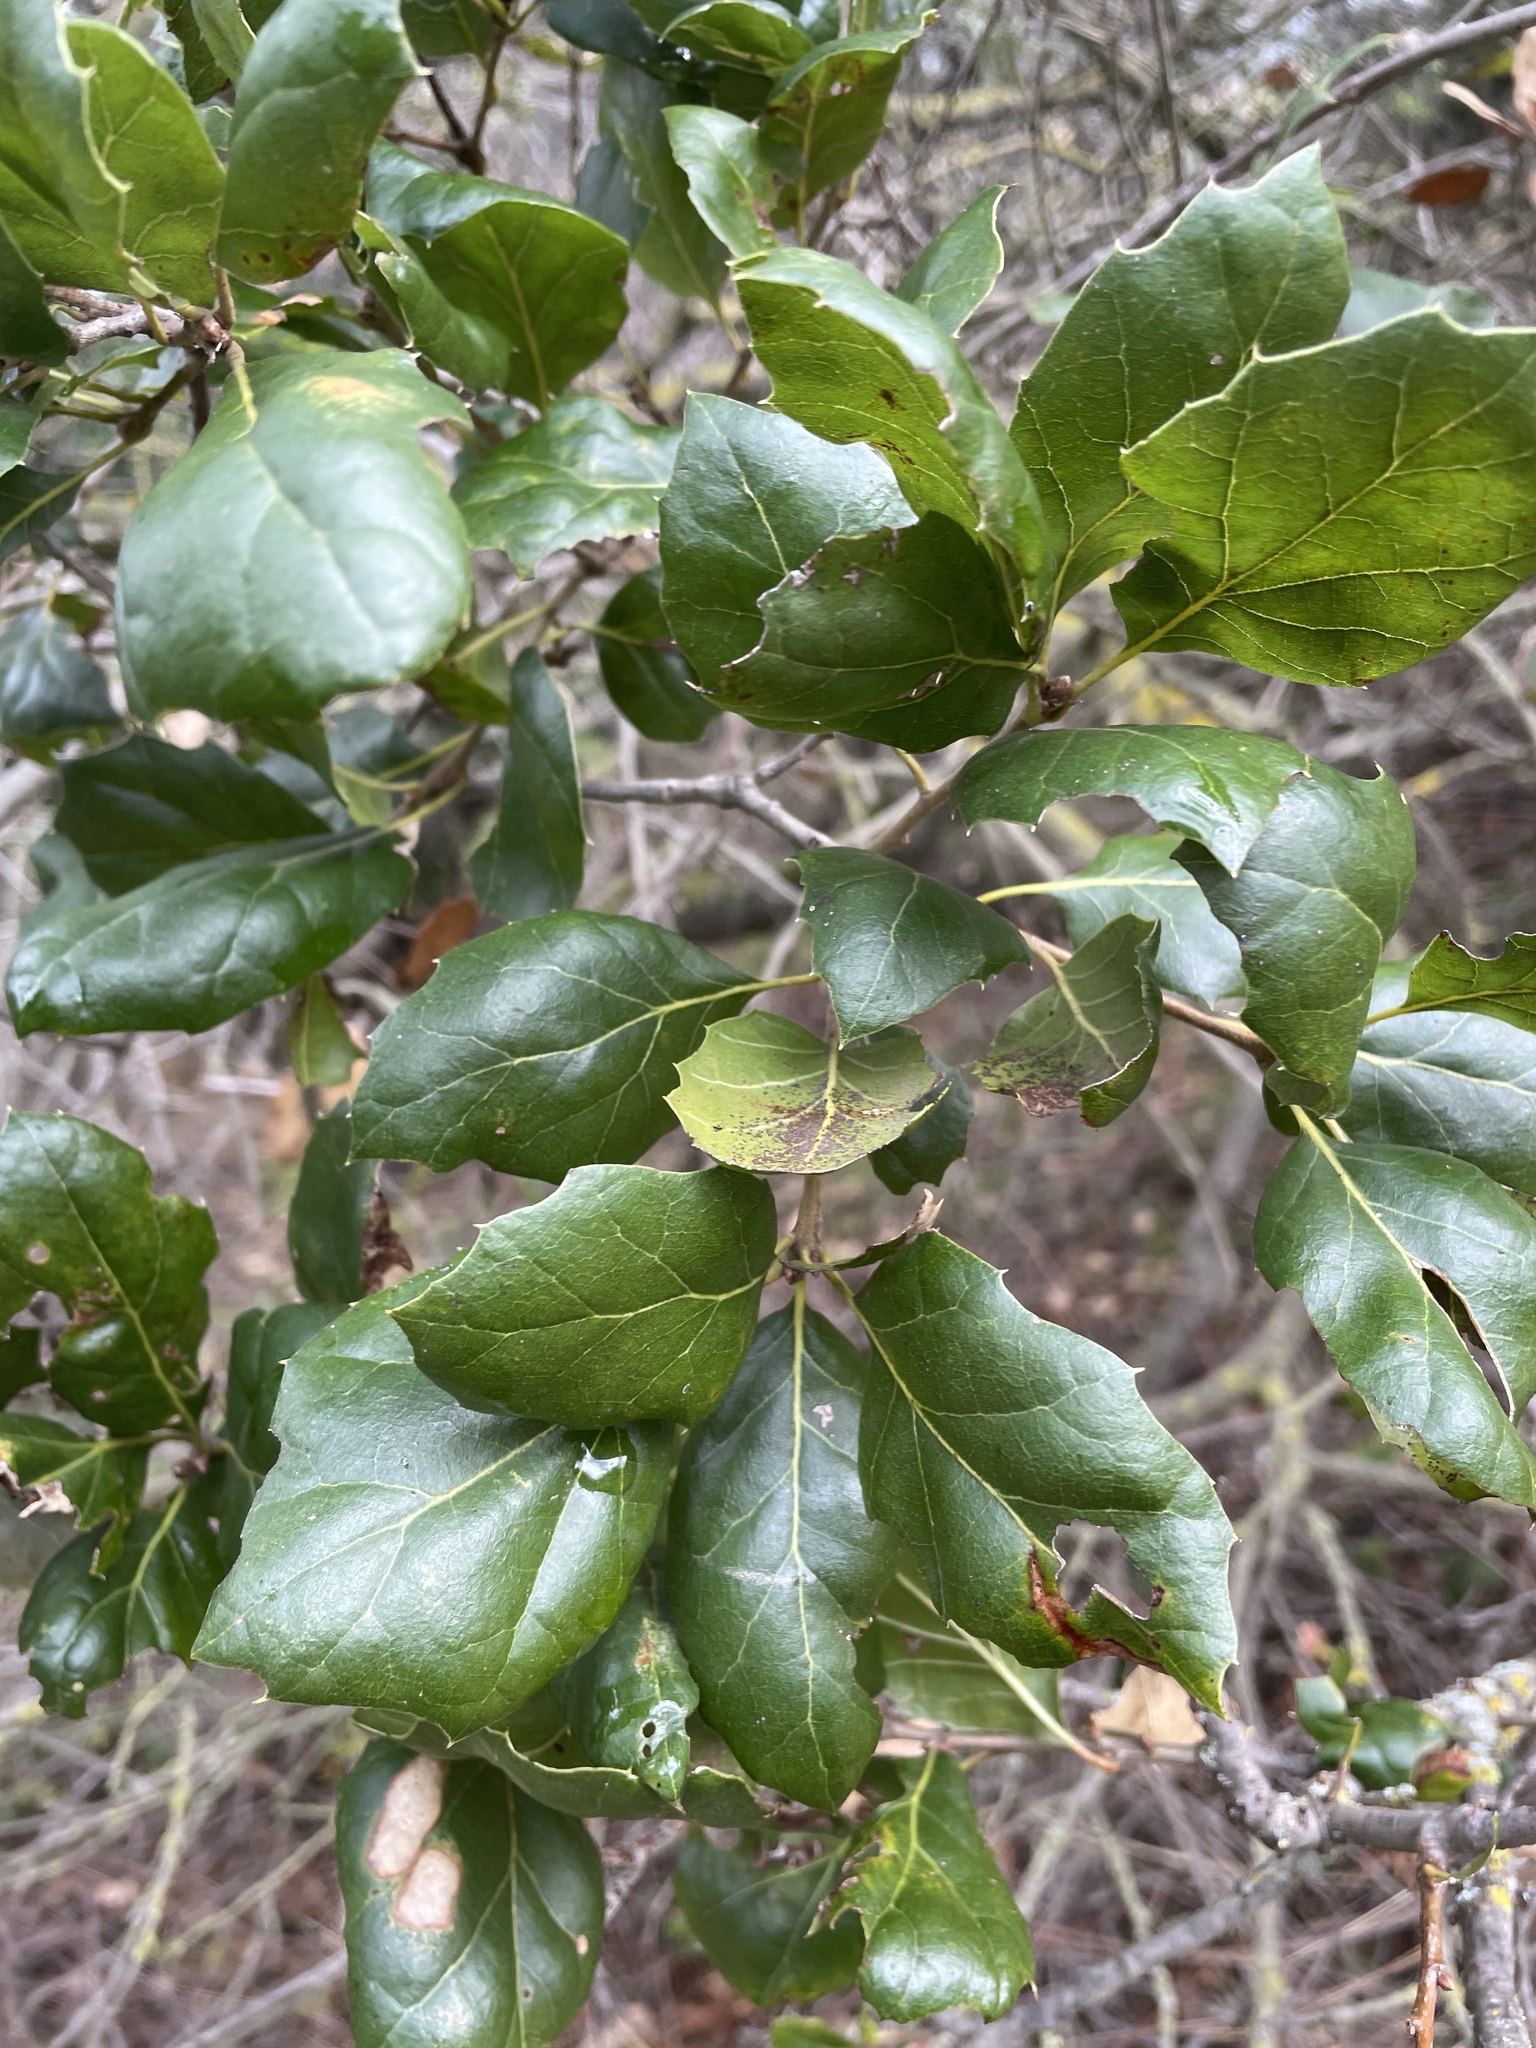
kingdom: Plantae
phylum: Tracheophyta
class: Magnoliopsida
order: Fagales
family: Fagaceae
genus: Quercus
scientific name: Quercus agrifolia
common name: California live oak
